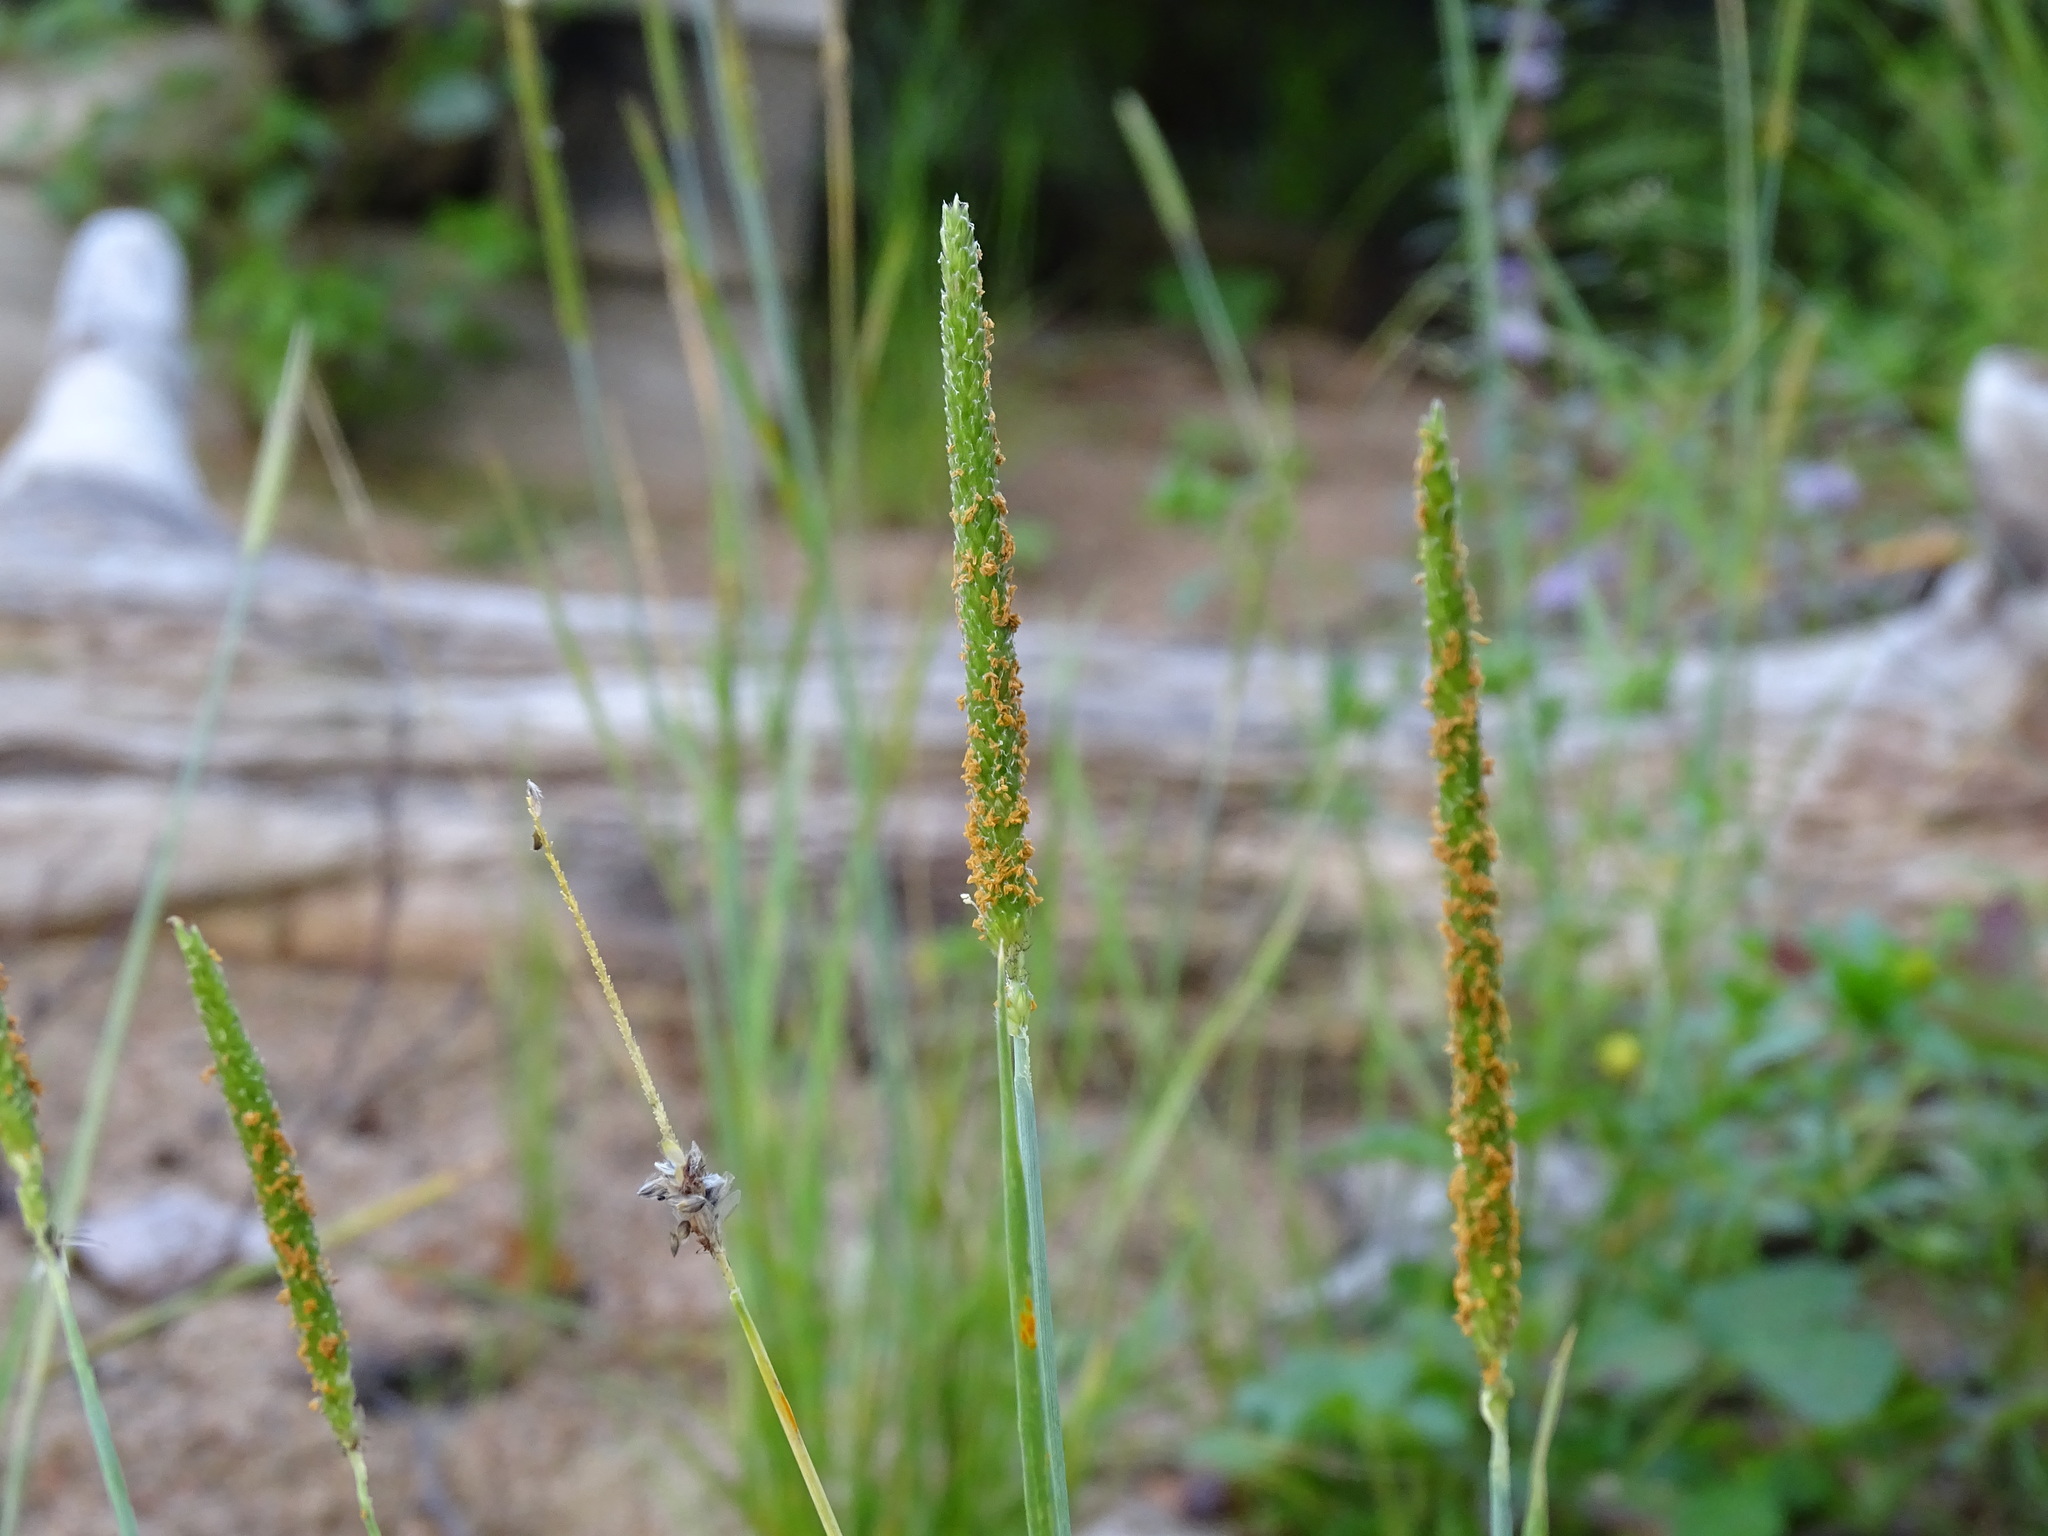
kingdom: Plantae
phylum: Tracheophyta
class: Liliopsida
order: Poales
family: Poaceae
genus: Alopecurus
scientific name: Alopecurus aequalis
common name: Orange foxtail
